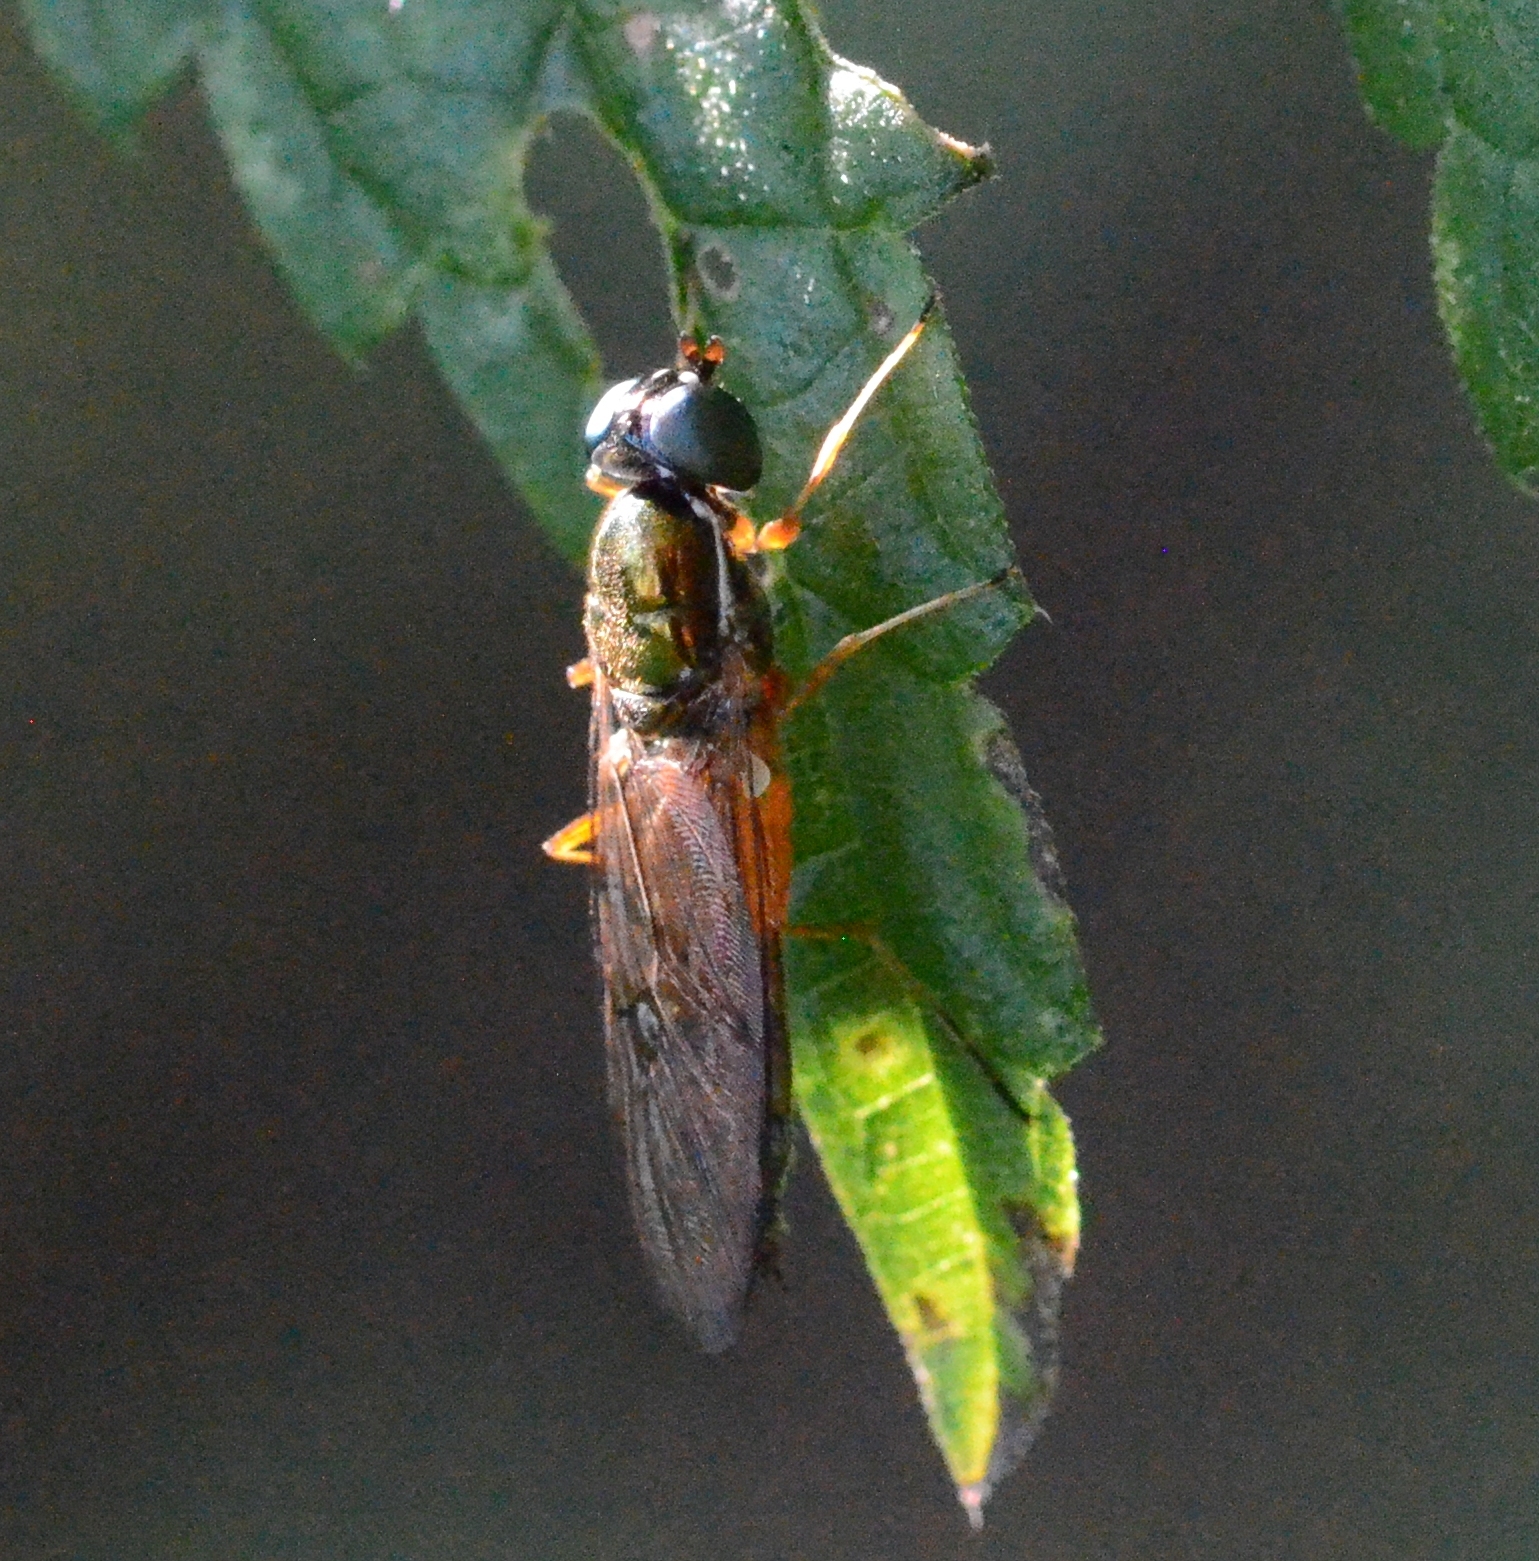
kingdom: Animalia
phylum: Arthropoda
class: Insecta
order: Diptera
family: Stratiomyidae
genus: Sargus
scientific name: Sargus bipunctatus
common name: Twin-spot centurion
